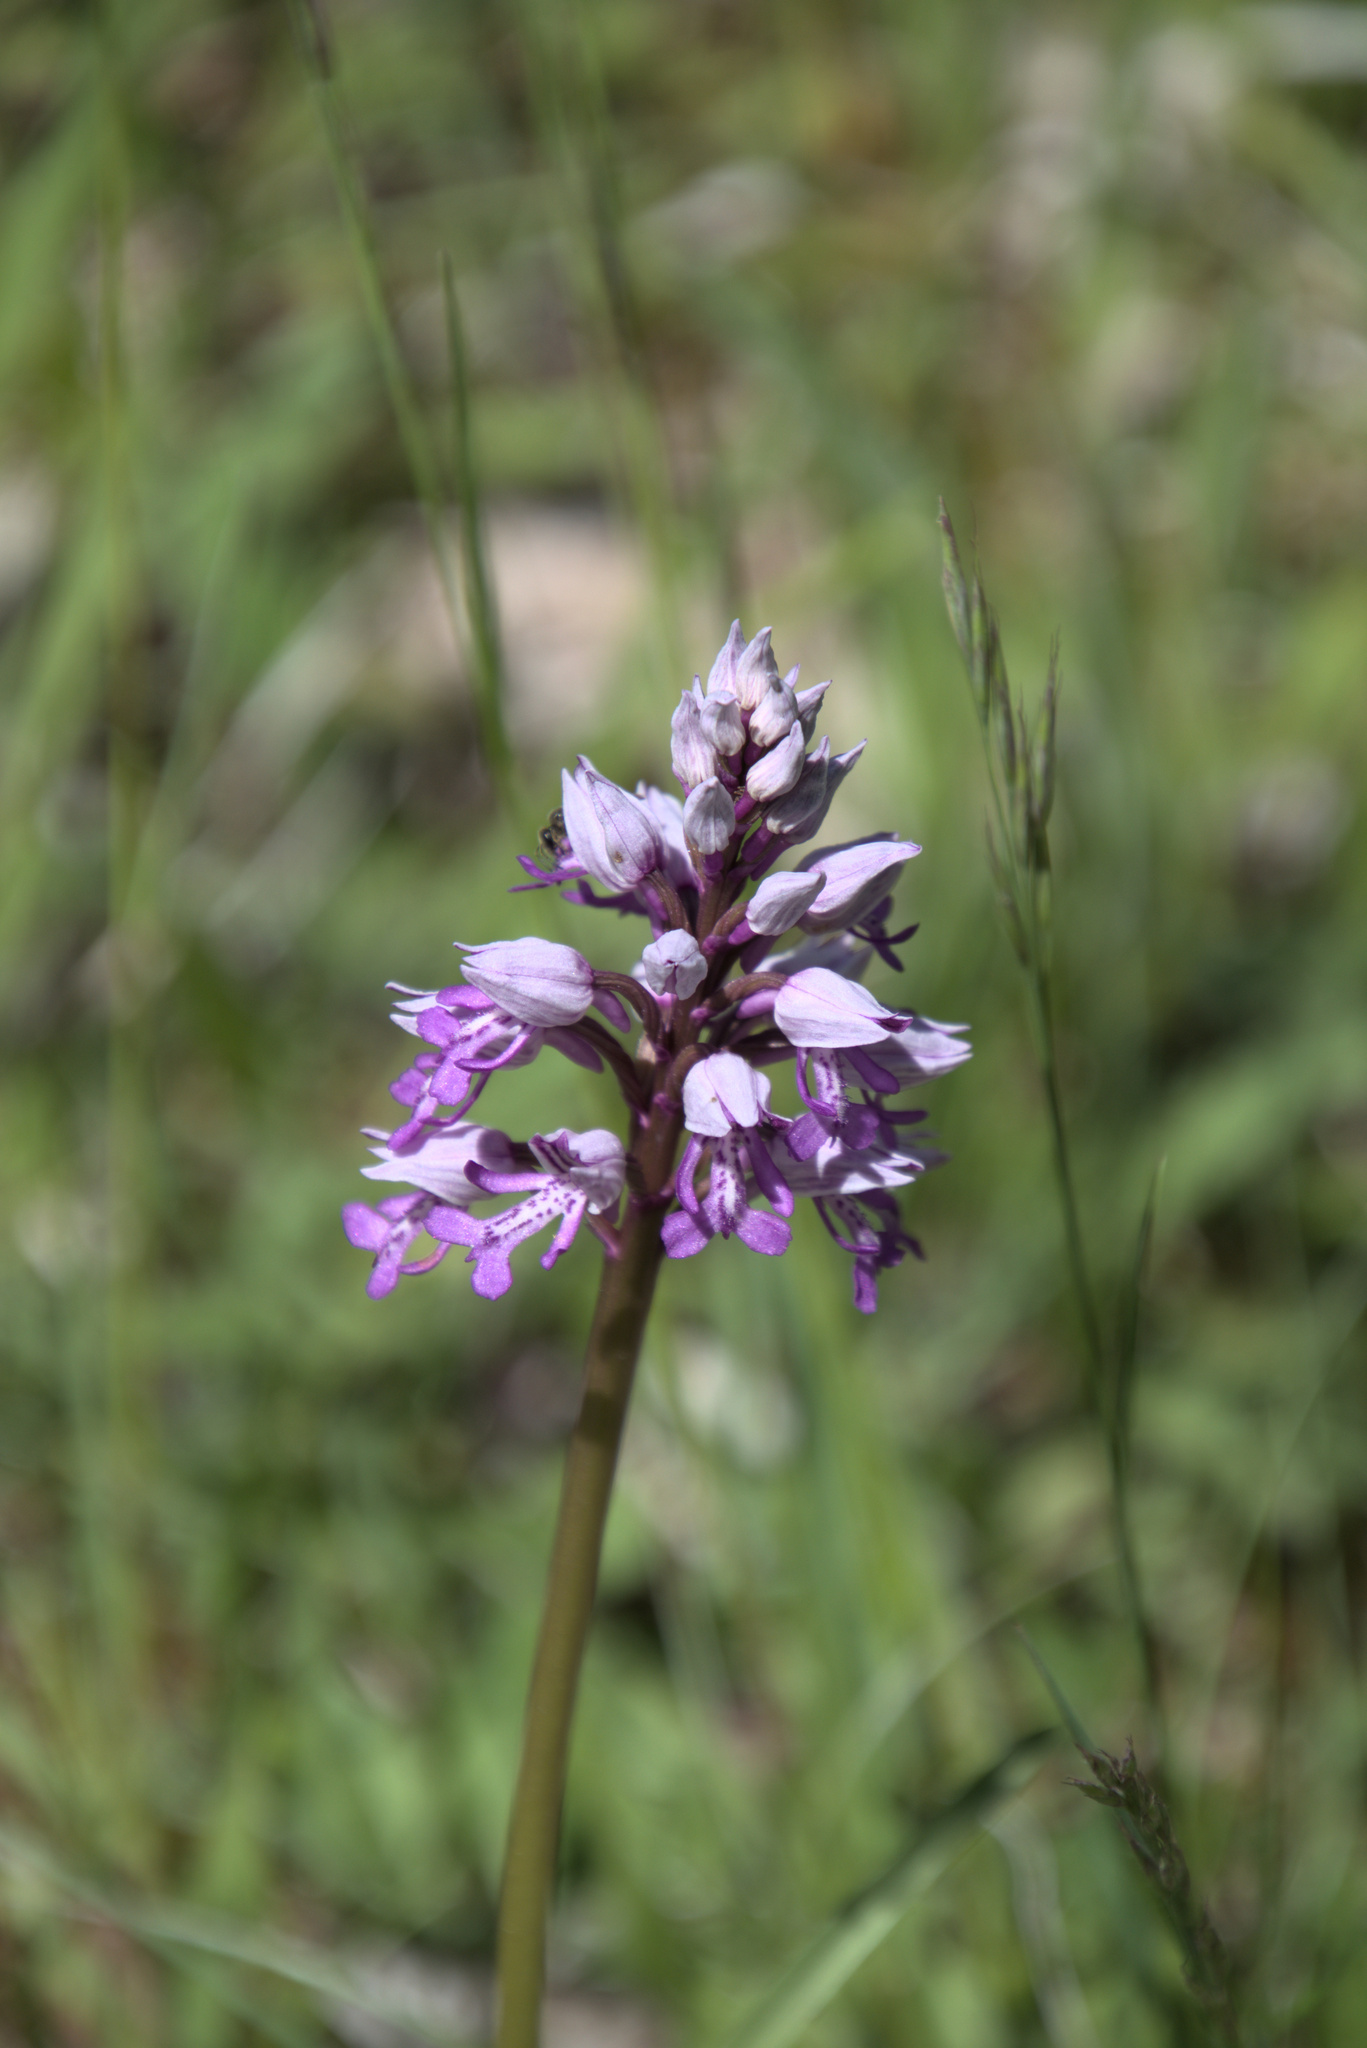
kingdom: Plantae
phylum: Tracheophyta
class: Liliopsida
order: Asparagales
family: Orchidaceae
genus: Orchis
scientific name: Orchis militaris
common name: Military orchid
